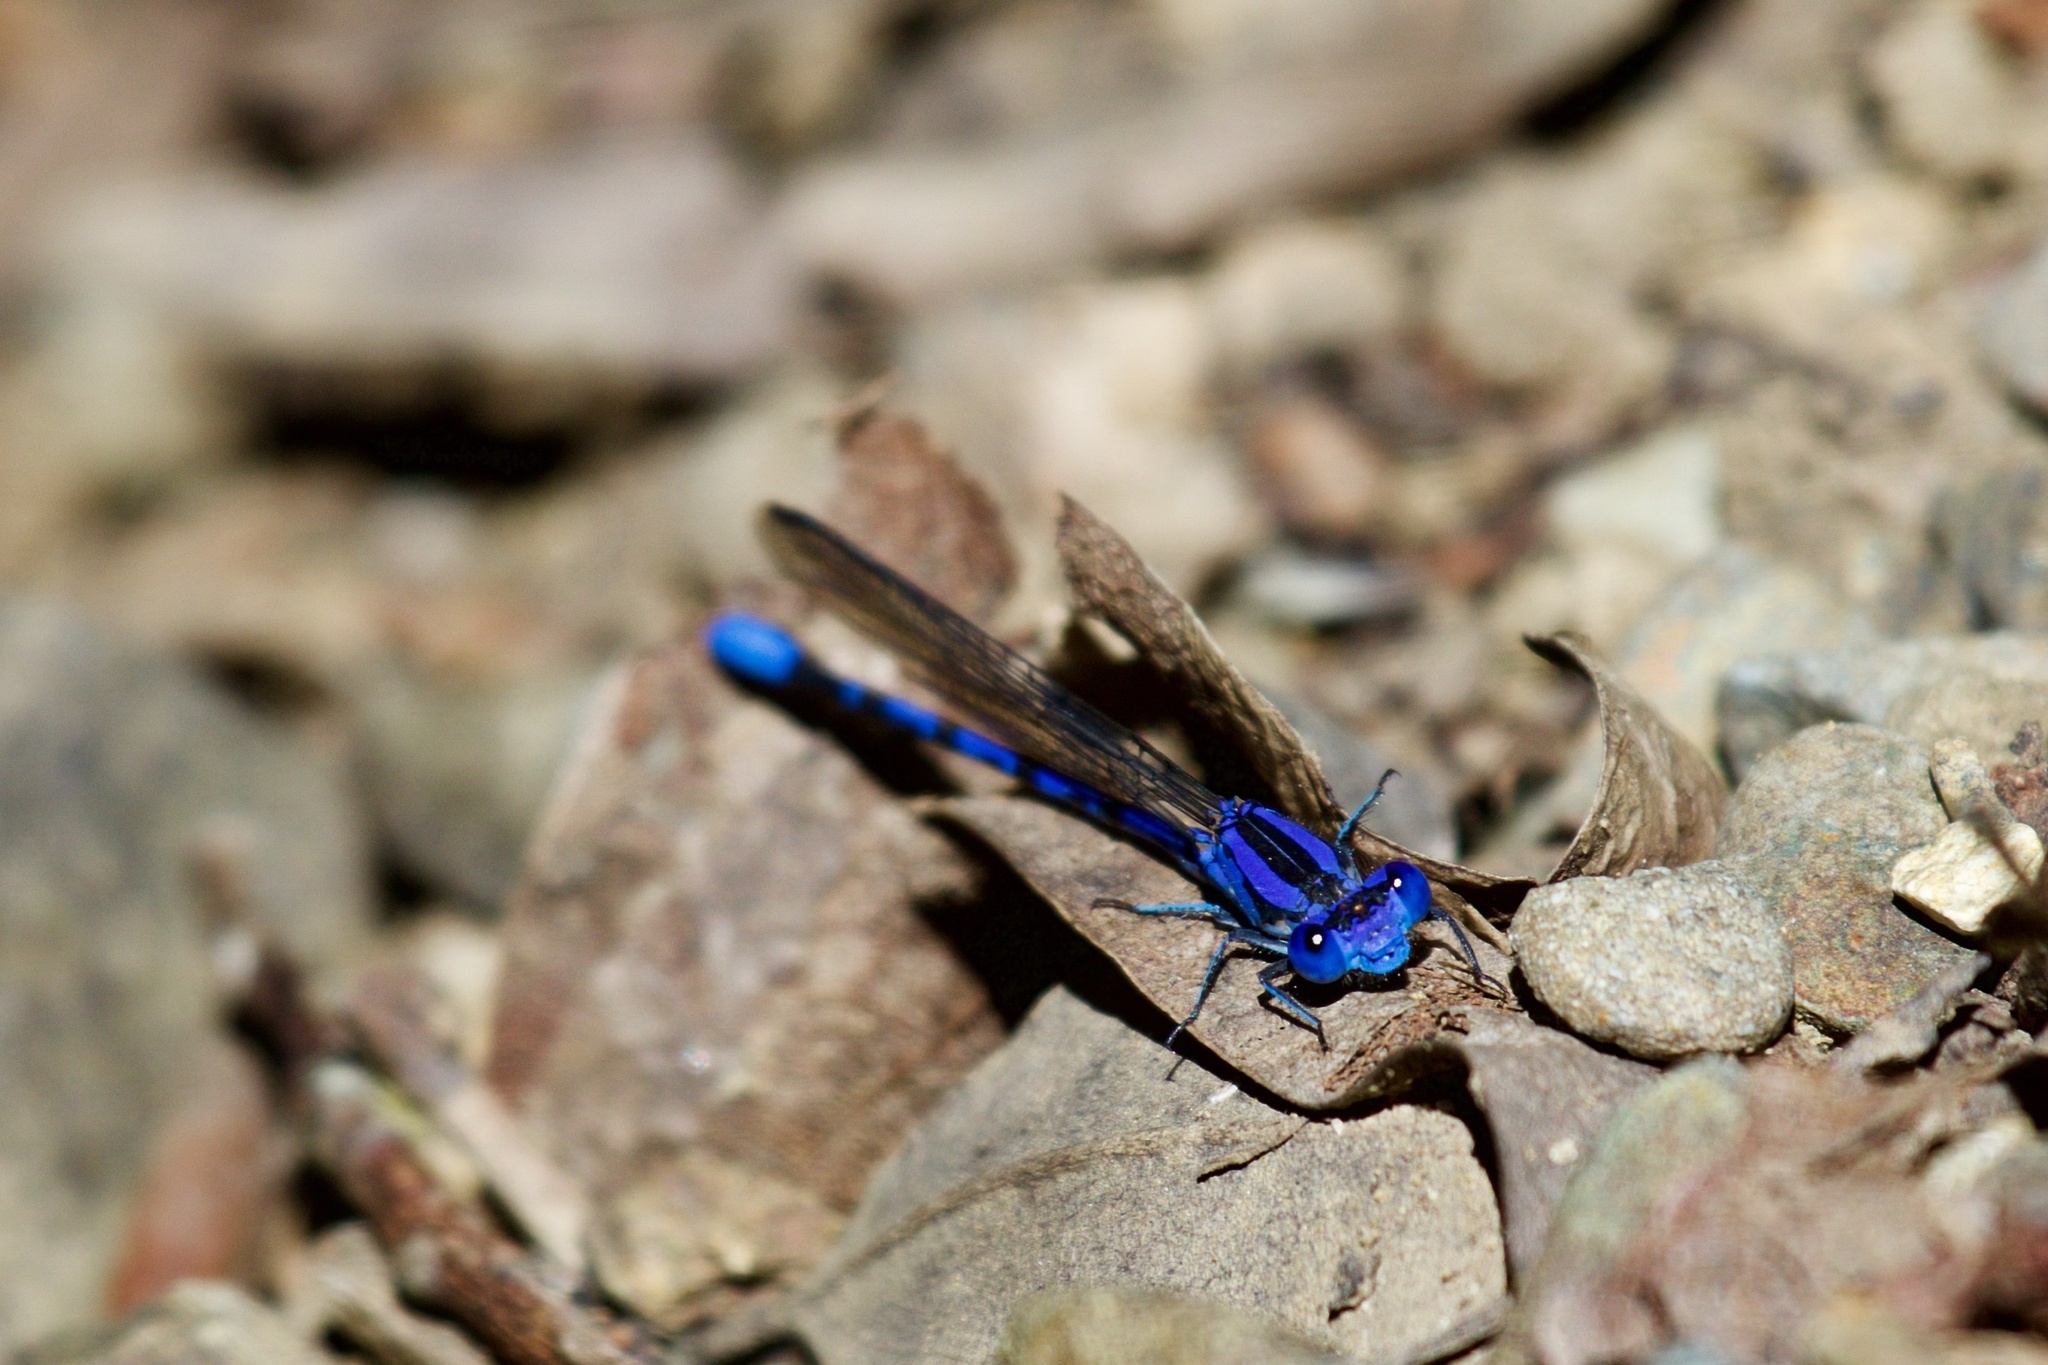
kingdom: Animalia
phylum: Arthropoda
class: Insecta
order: Odonata
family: Coenagrionidae
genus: Argia
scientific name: Argia vivida
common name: Vivid dancer
